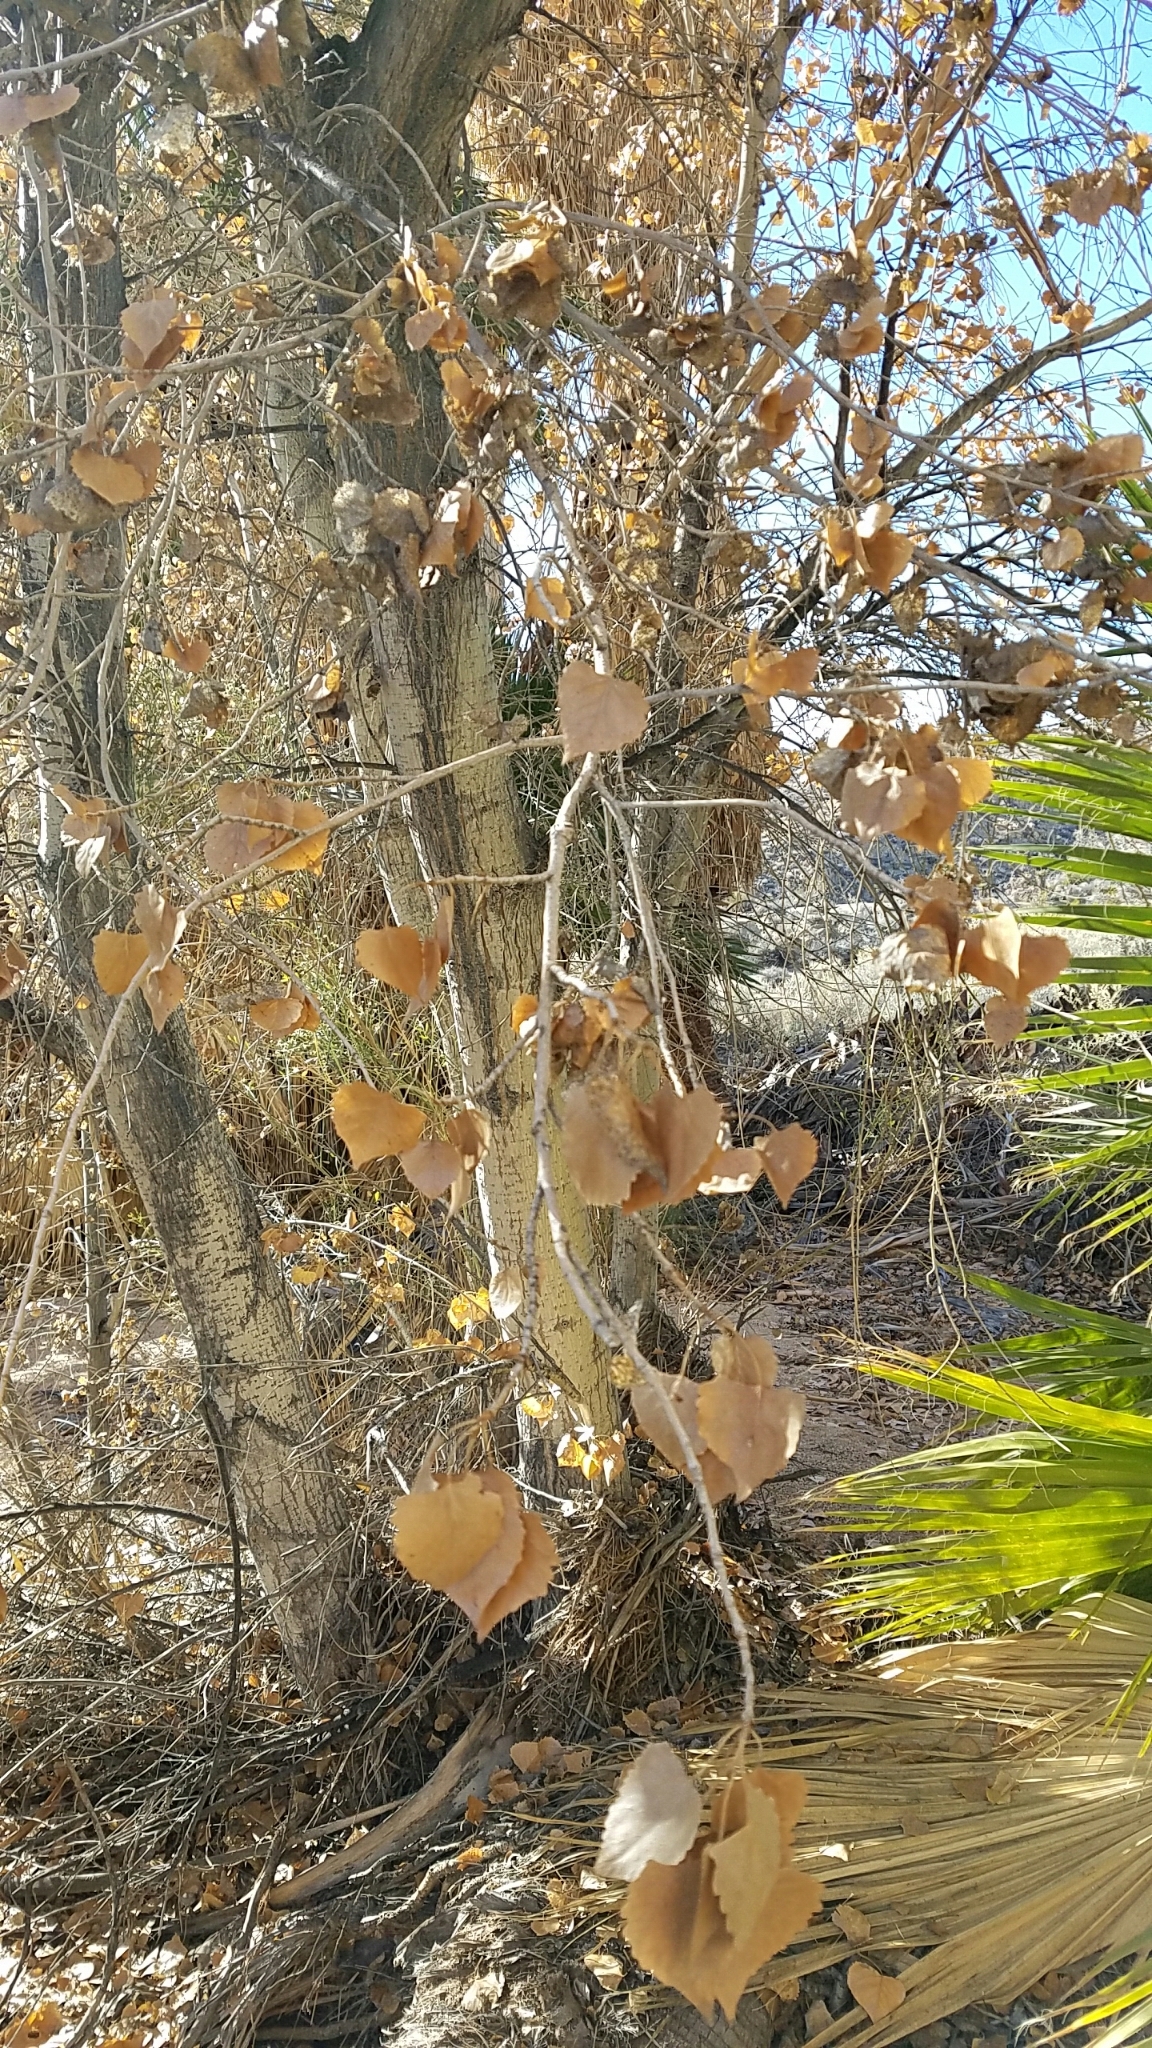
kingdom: Plantae
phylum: Tracheophyta
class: Magnoliopsida
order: Malpighiales
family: Salicaceae
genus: Populus
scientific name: Populus fremontii
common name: Fremont's cottonwood
